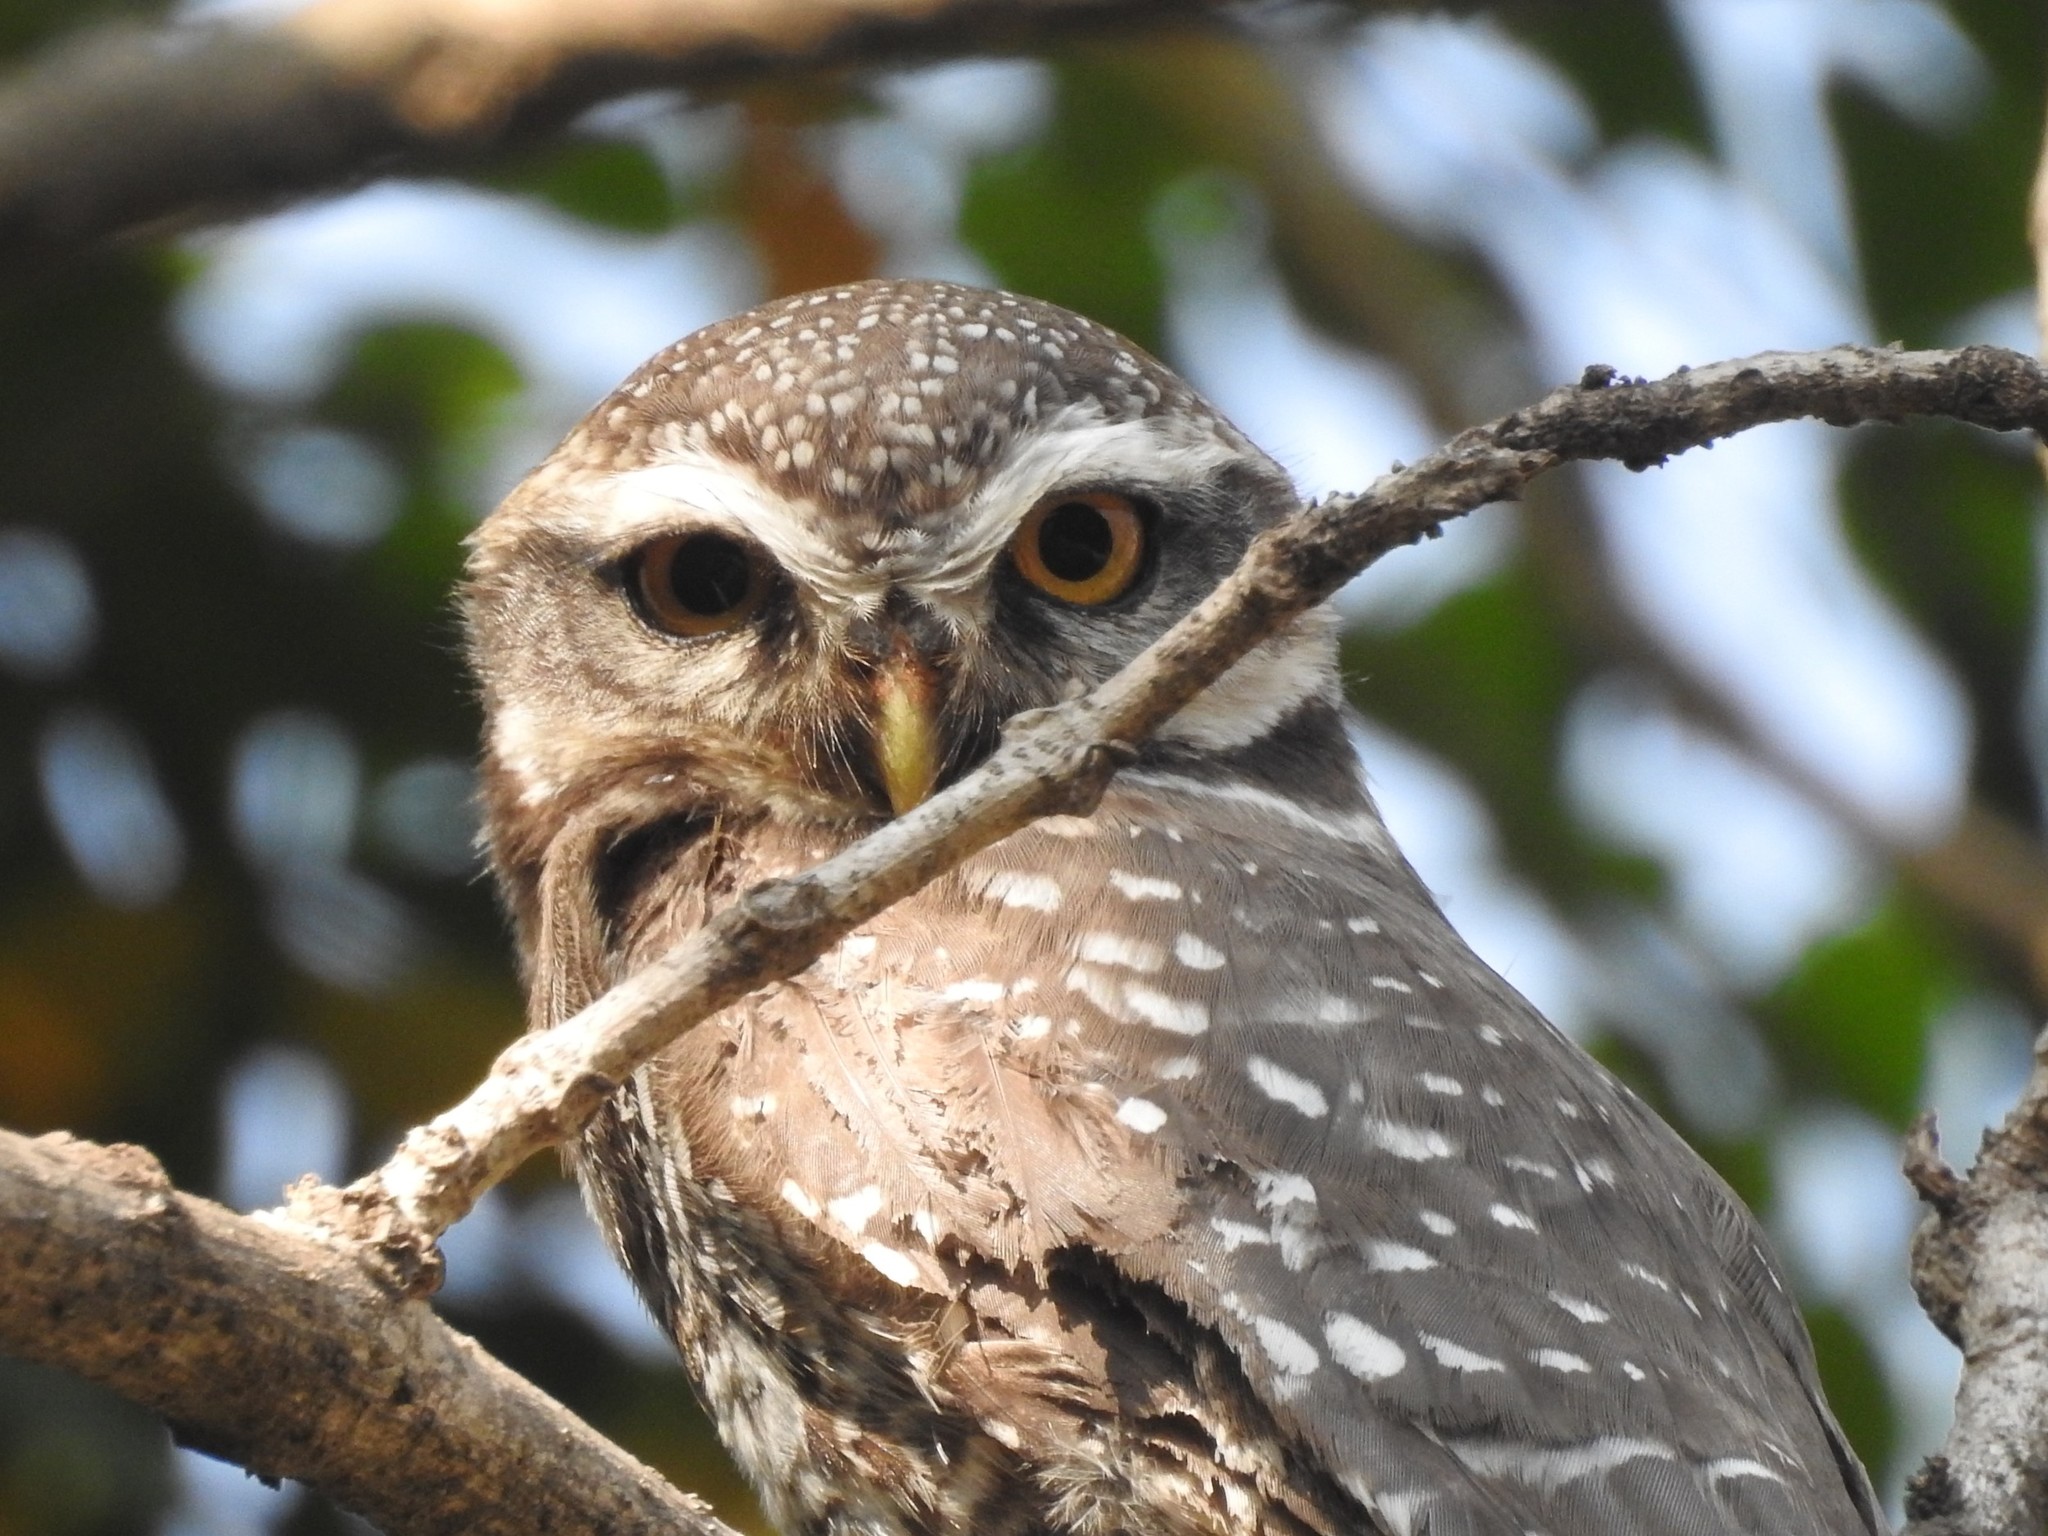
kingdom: Animalia
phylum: Chordata
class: Aves
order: Strigiformes
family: Strigidae
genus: Athene
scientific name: Athene brama
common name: Spotted owlet
